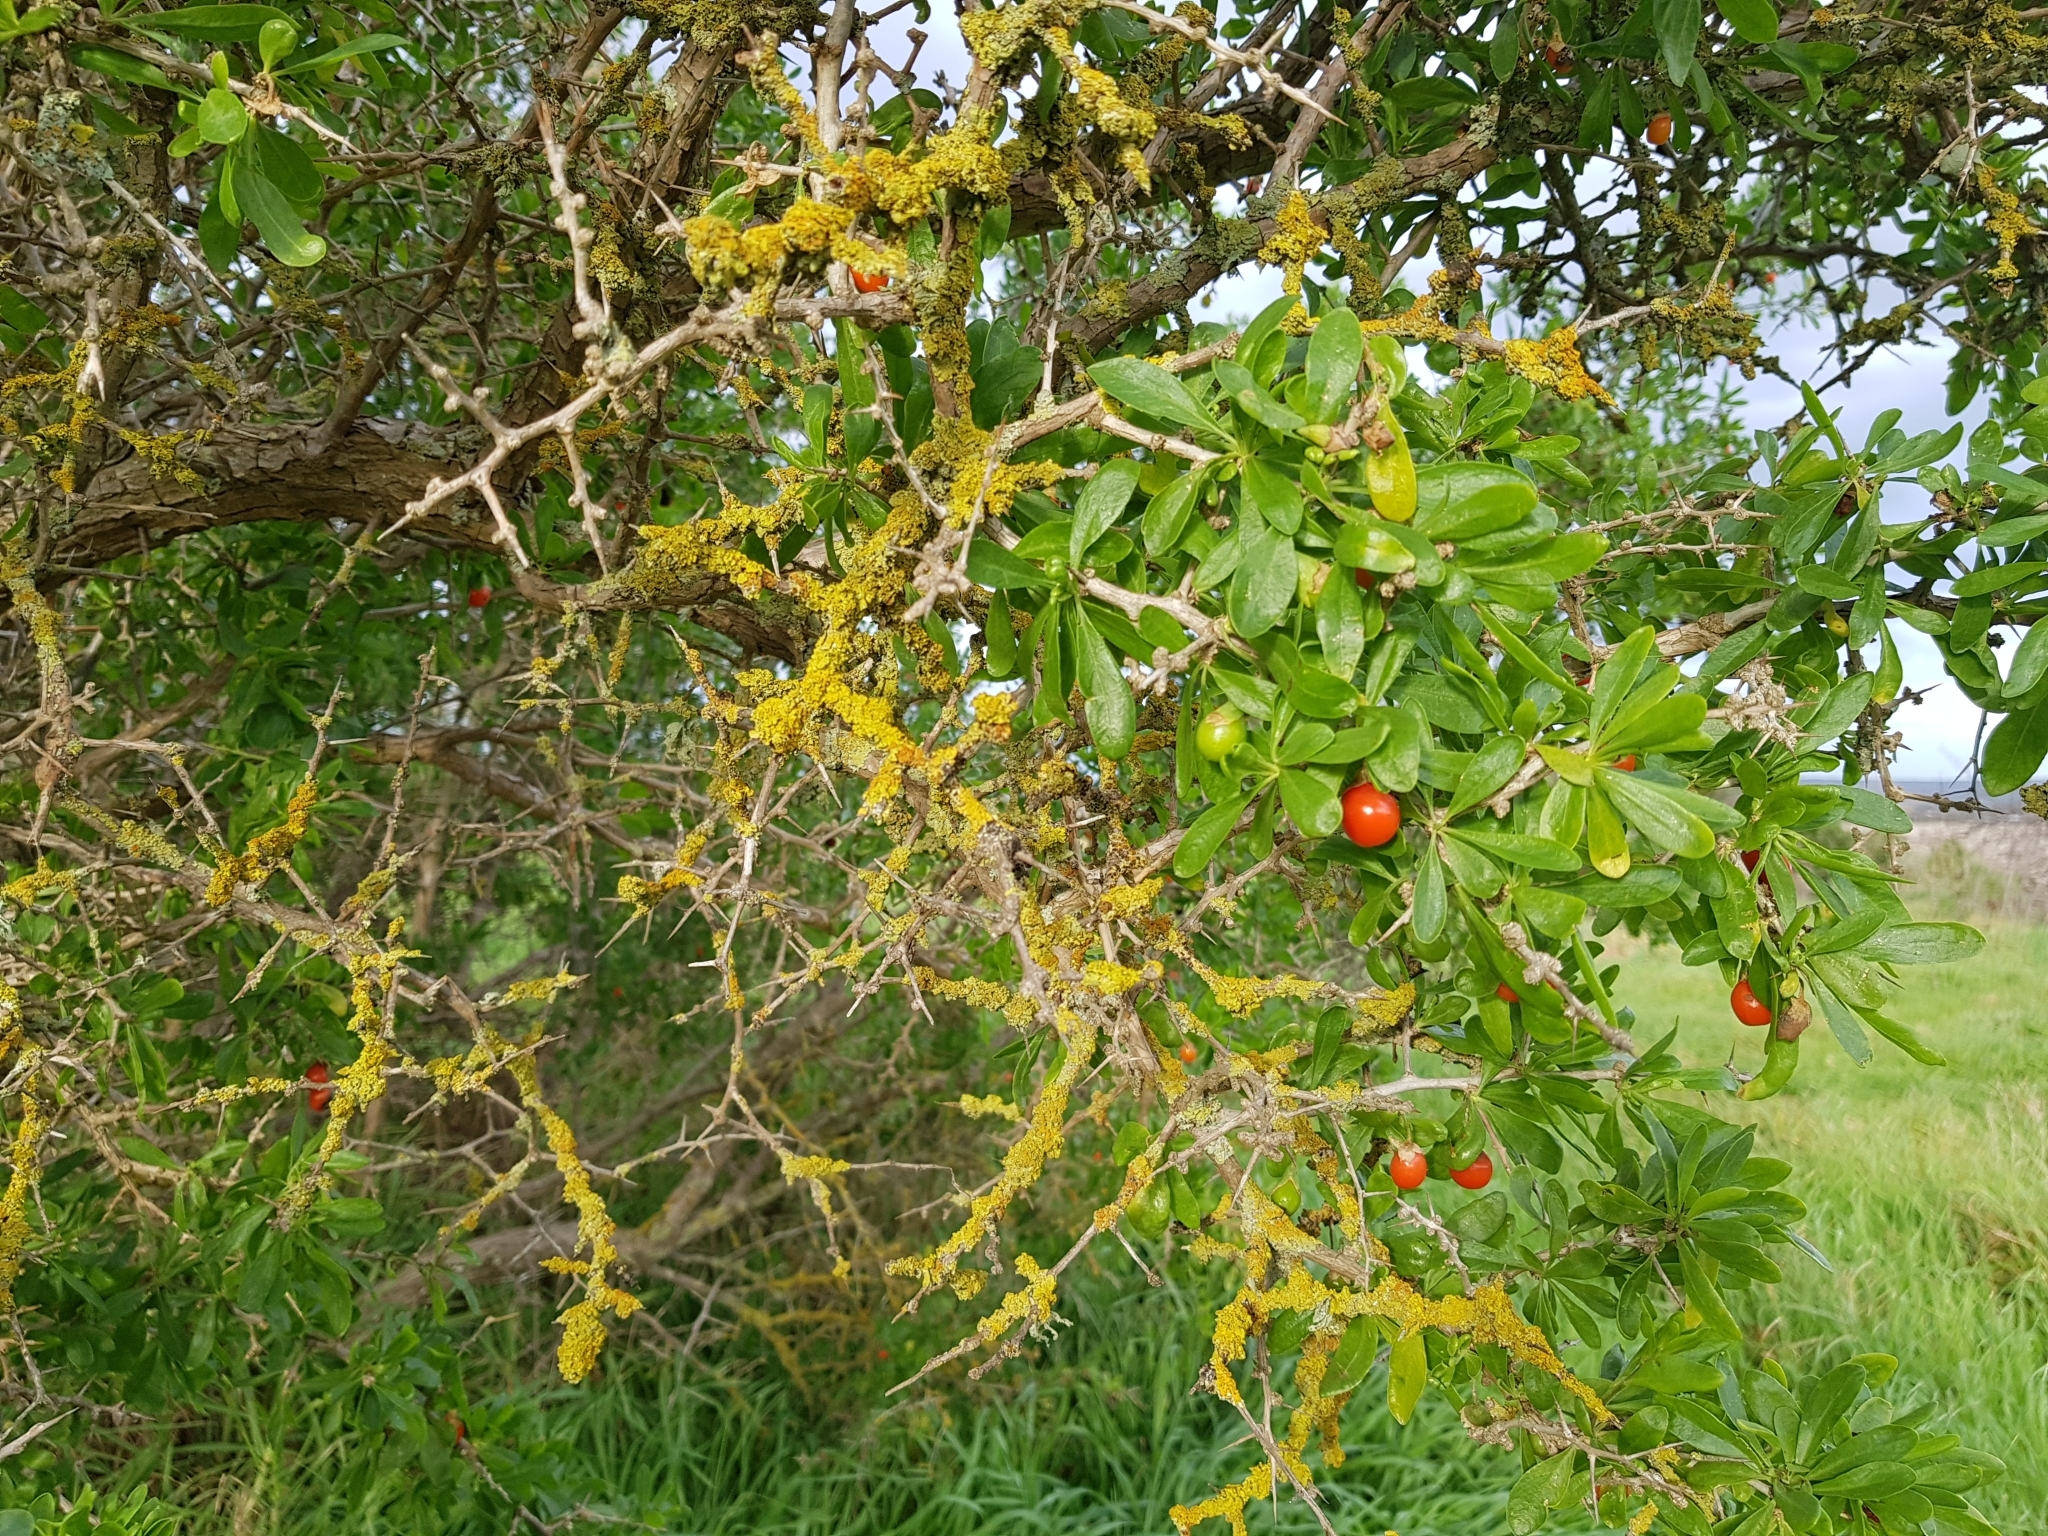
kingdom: Plantae
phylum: Tracheophyta
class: Magnoliopsida
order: Solanales
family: Solanaceae
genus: Lycium
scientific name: Lycium ferocissimum
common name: African boxthorn
